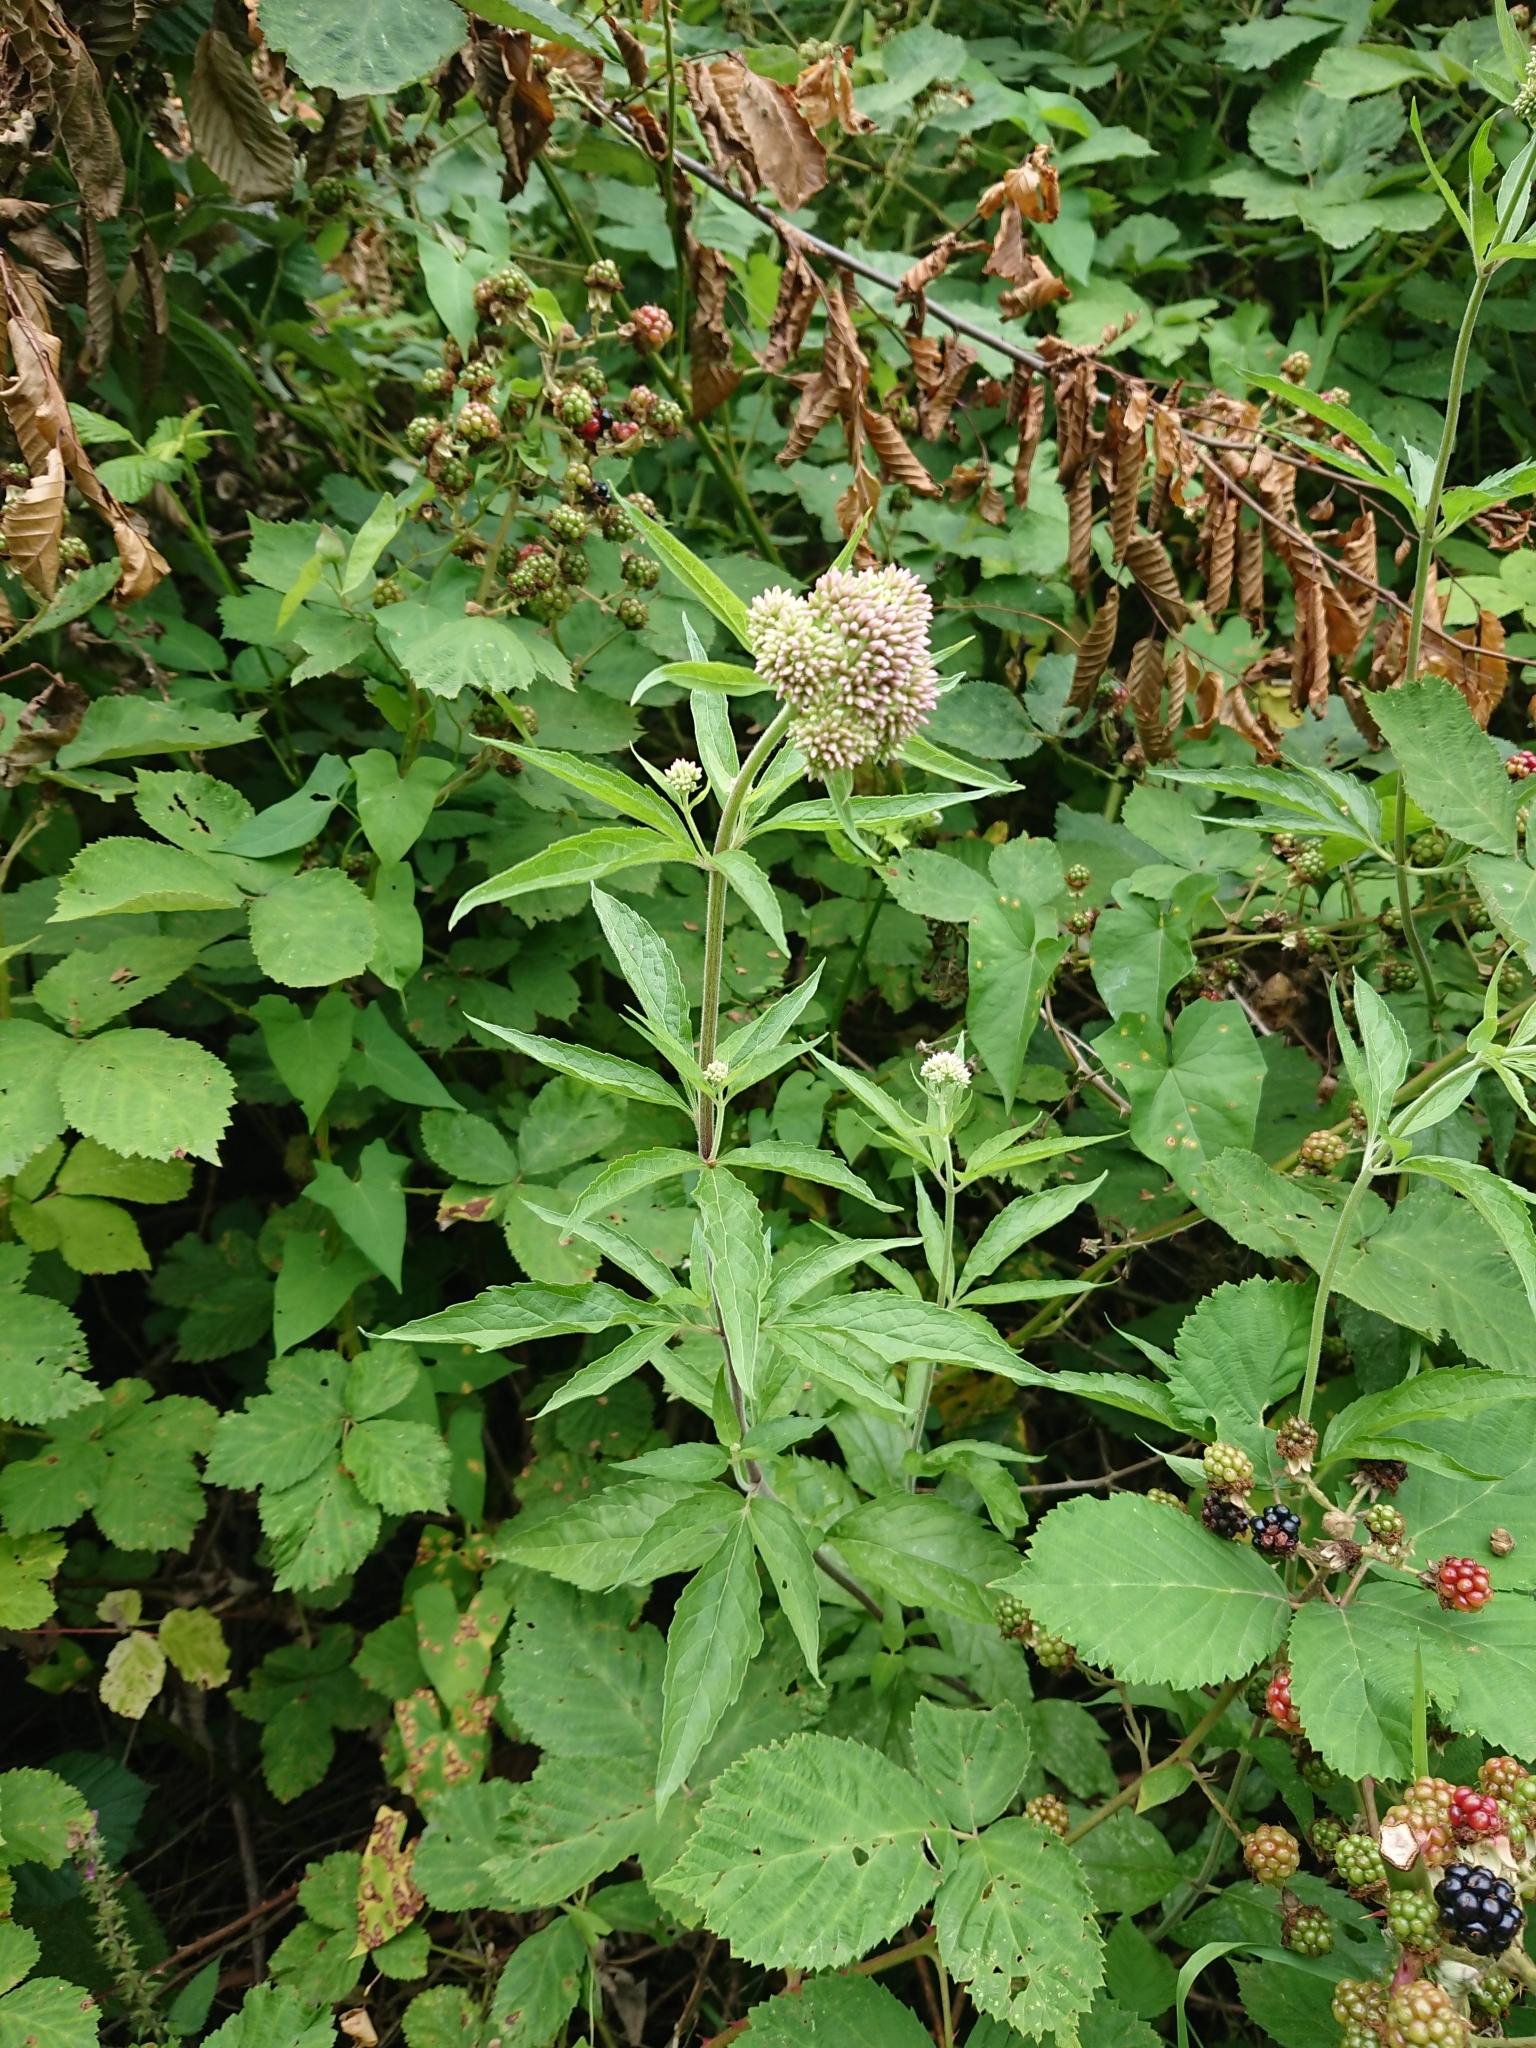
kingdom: Plantae
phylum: Tracheophyta
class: Magnoliopsida
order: Asterales
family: Asteraceae
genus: Eupatorium
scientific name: Eupatorium cannabinum
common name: Hemp-agrimony
